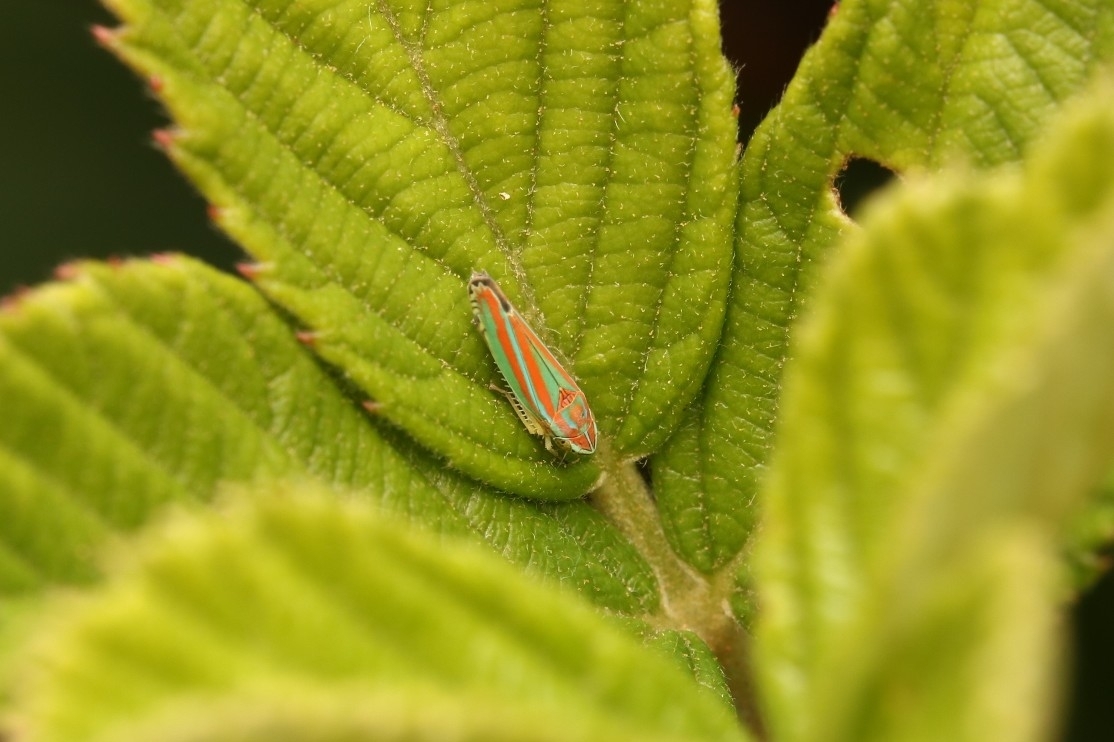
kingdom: Animalia
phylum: Arthropoda
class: Insecta
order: Hemiptera
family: Cicadellidae
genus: Graphocephala
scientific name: Graphocephala versuta
